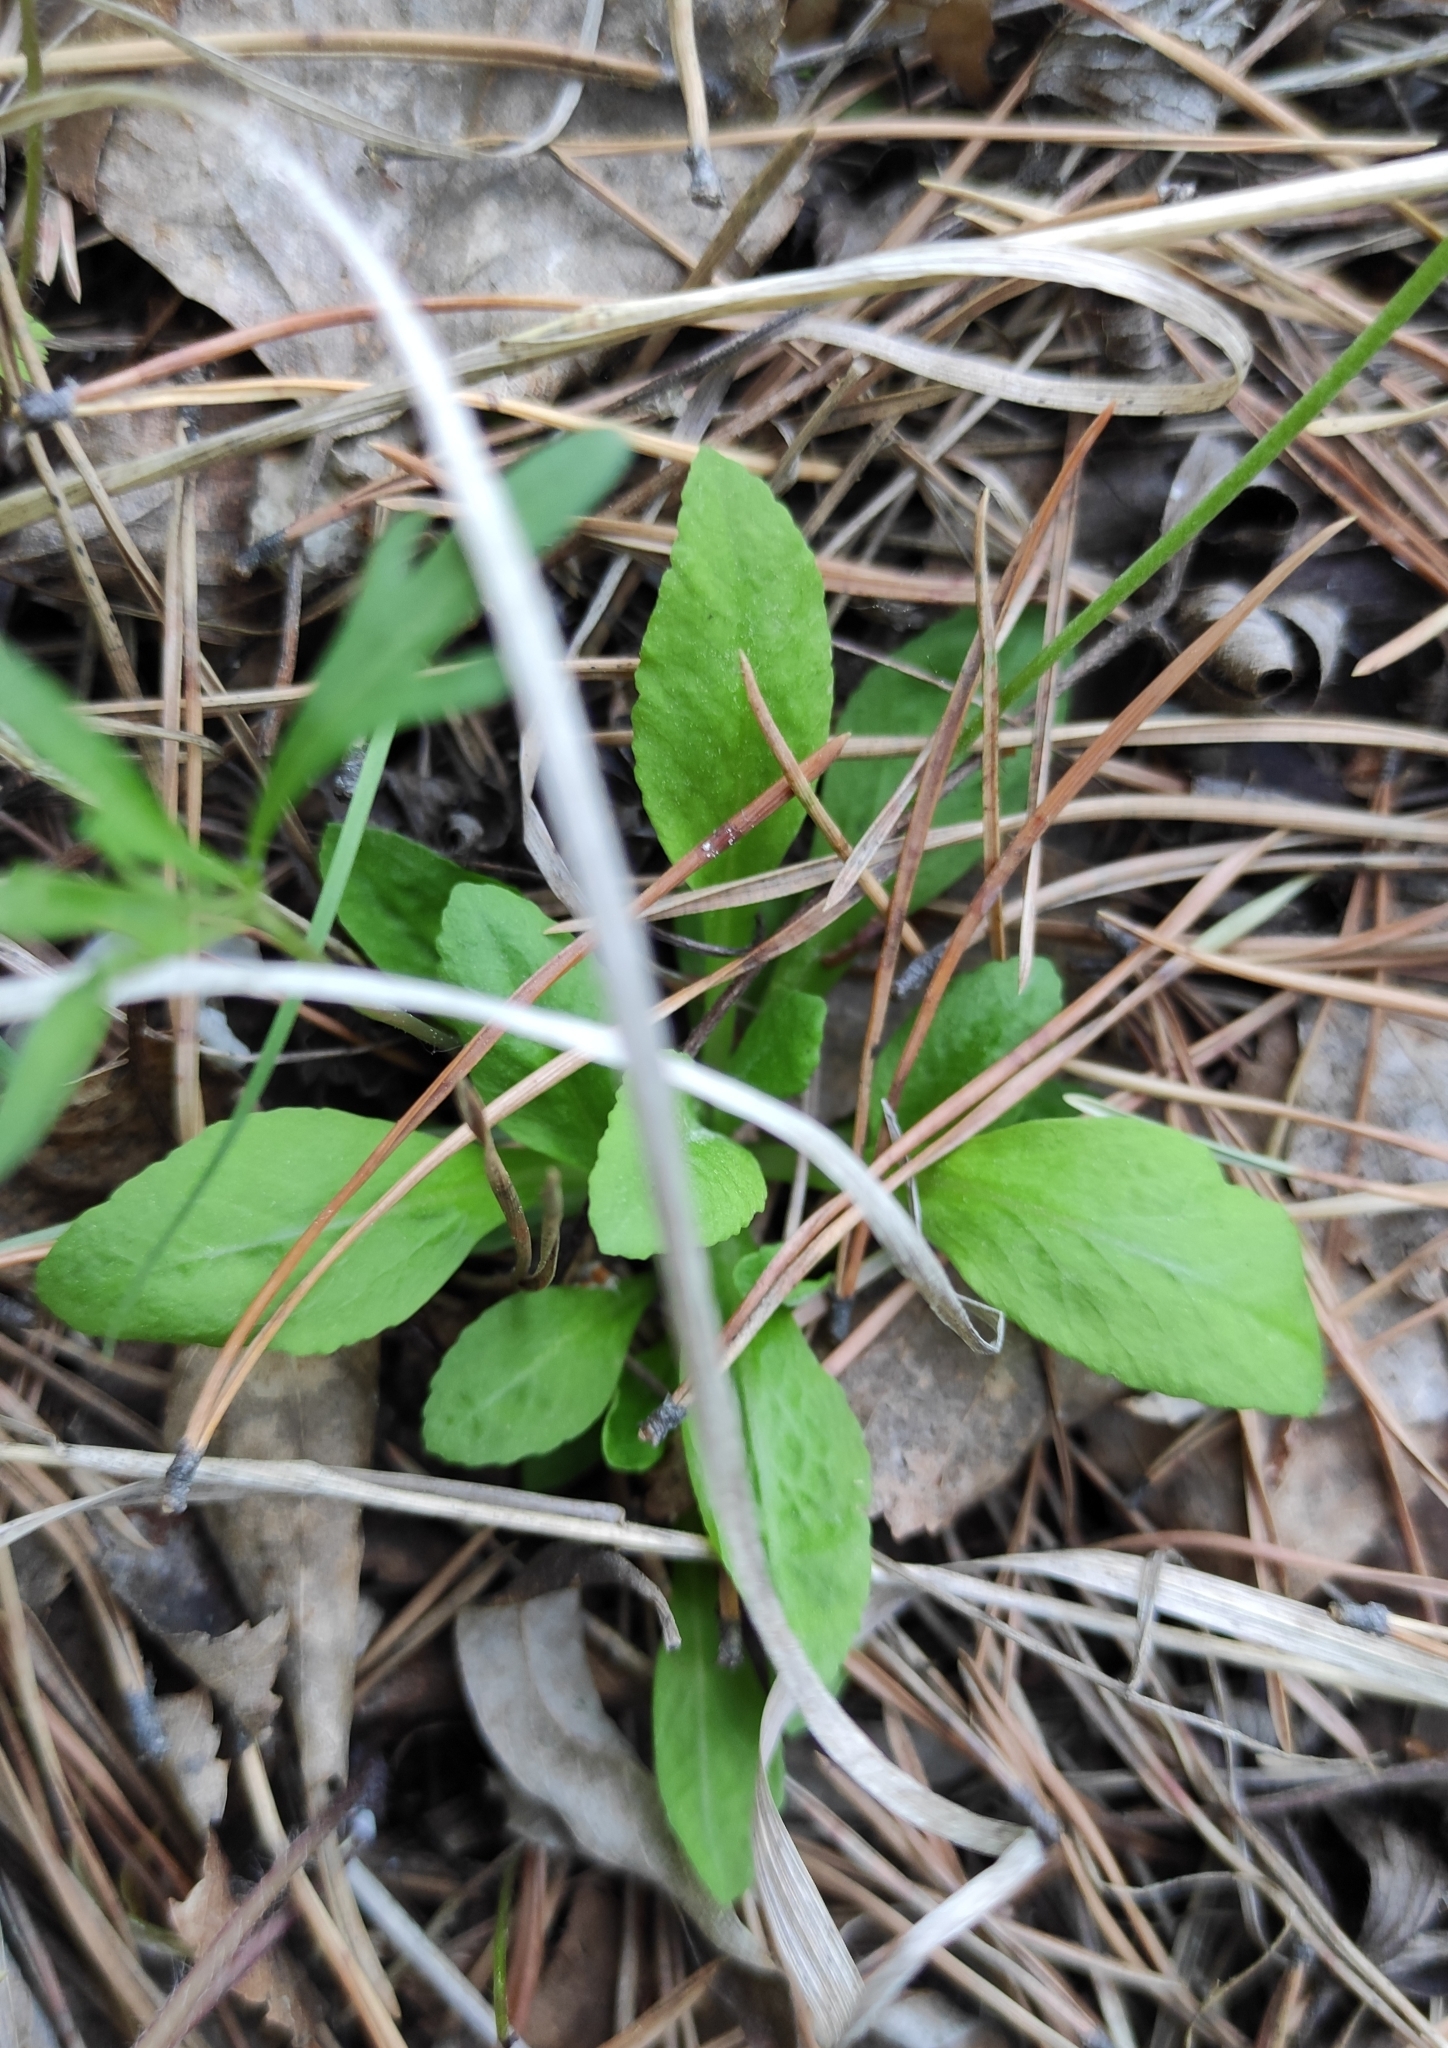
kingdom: Plantae
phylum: Tracheophyta
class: Magnoliopsida
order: Ericales
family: Primulaceae
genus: Primula
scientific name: Primula farinosa
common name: Bird's-eye primrose
